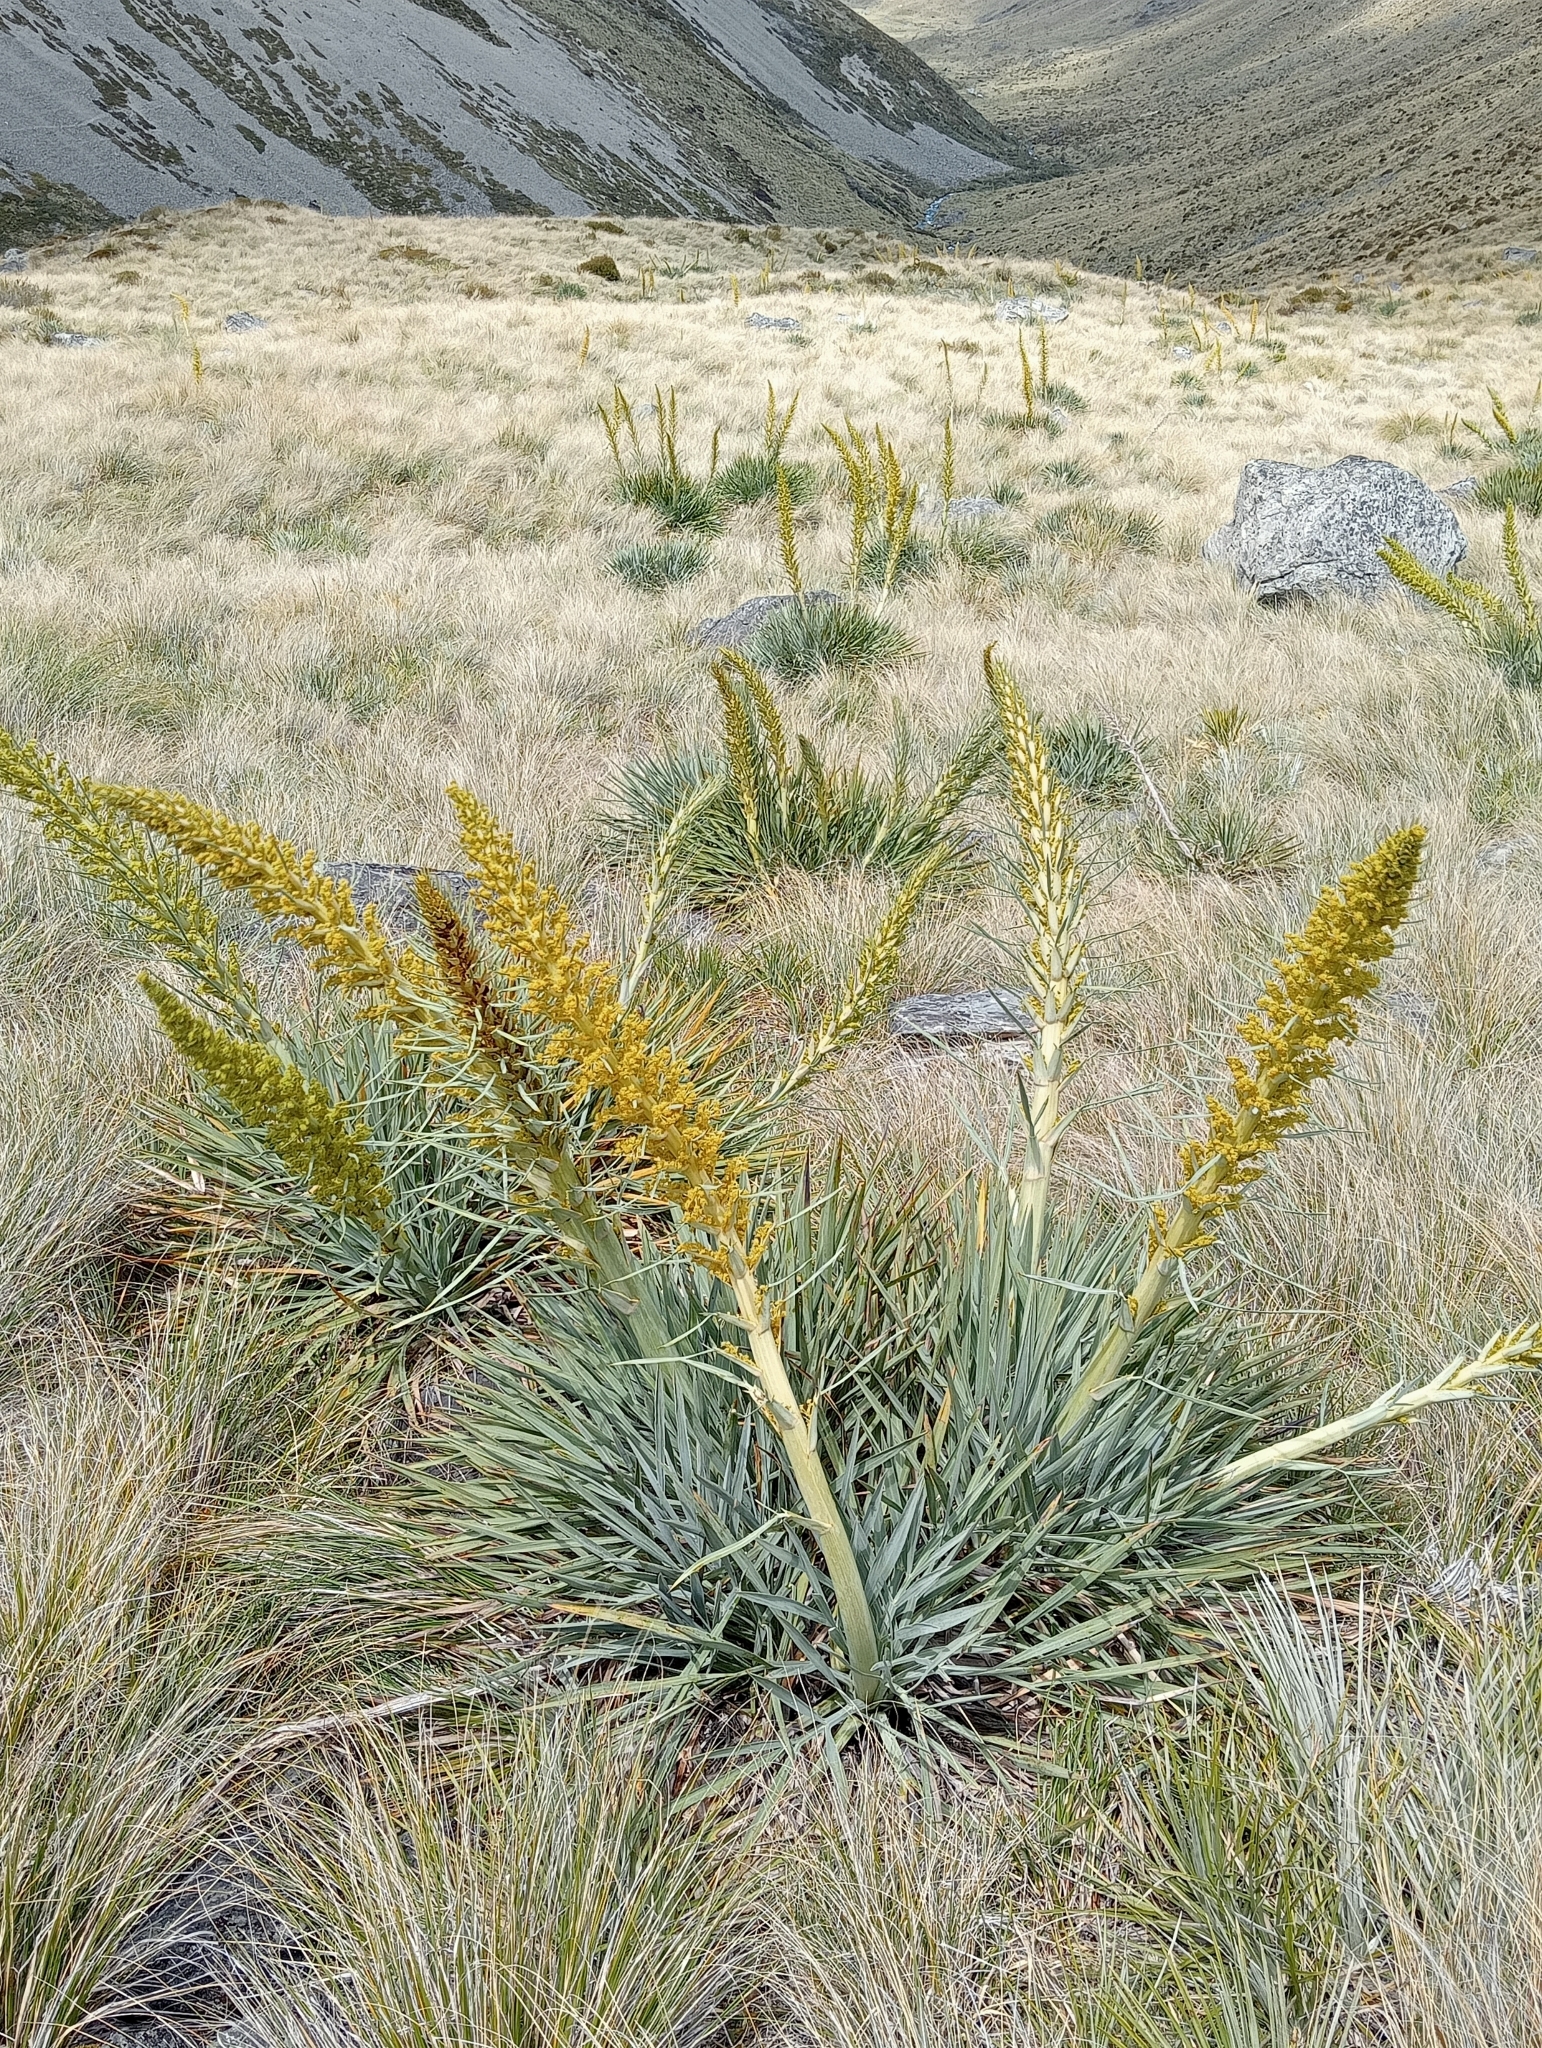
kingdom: Plantae
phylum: Tracheophyta
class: Magnoliopsida
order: Apiales
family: Apiaceae
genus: Aciphylla
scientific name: Aciphylla scott-thomsonii
